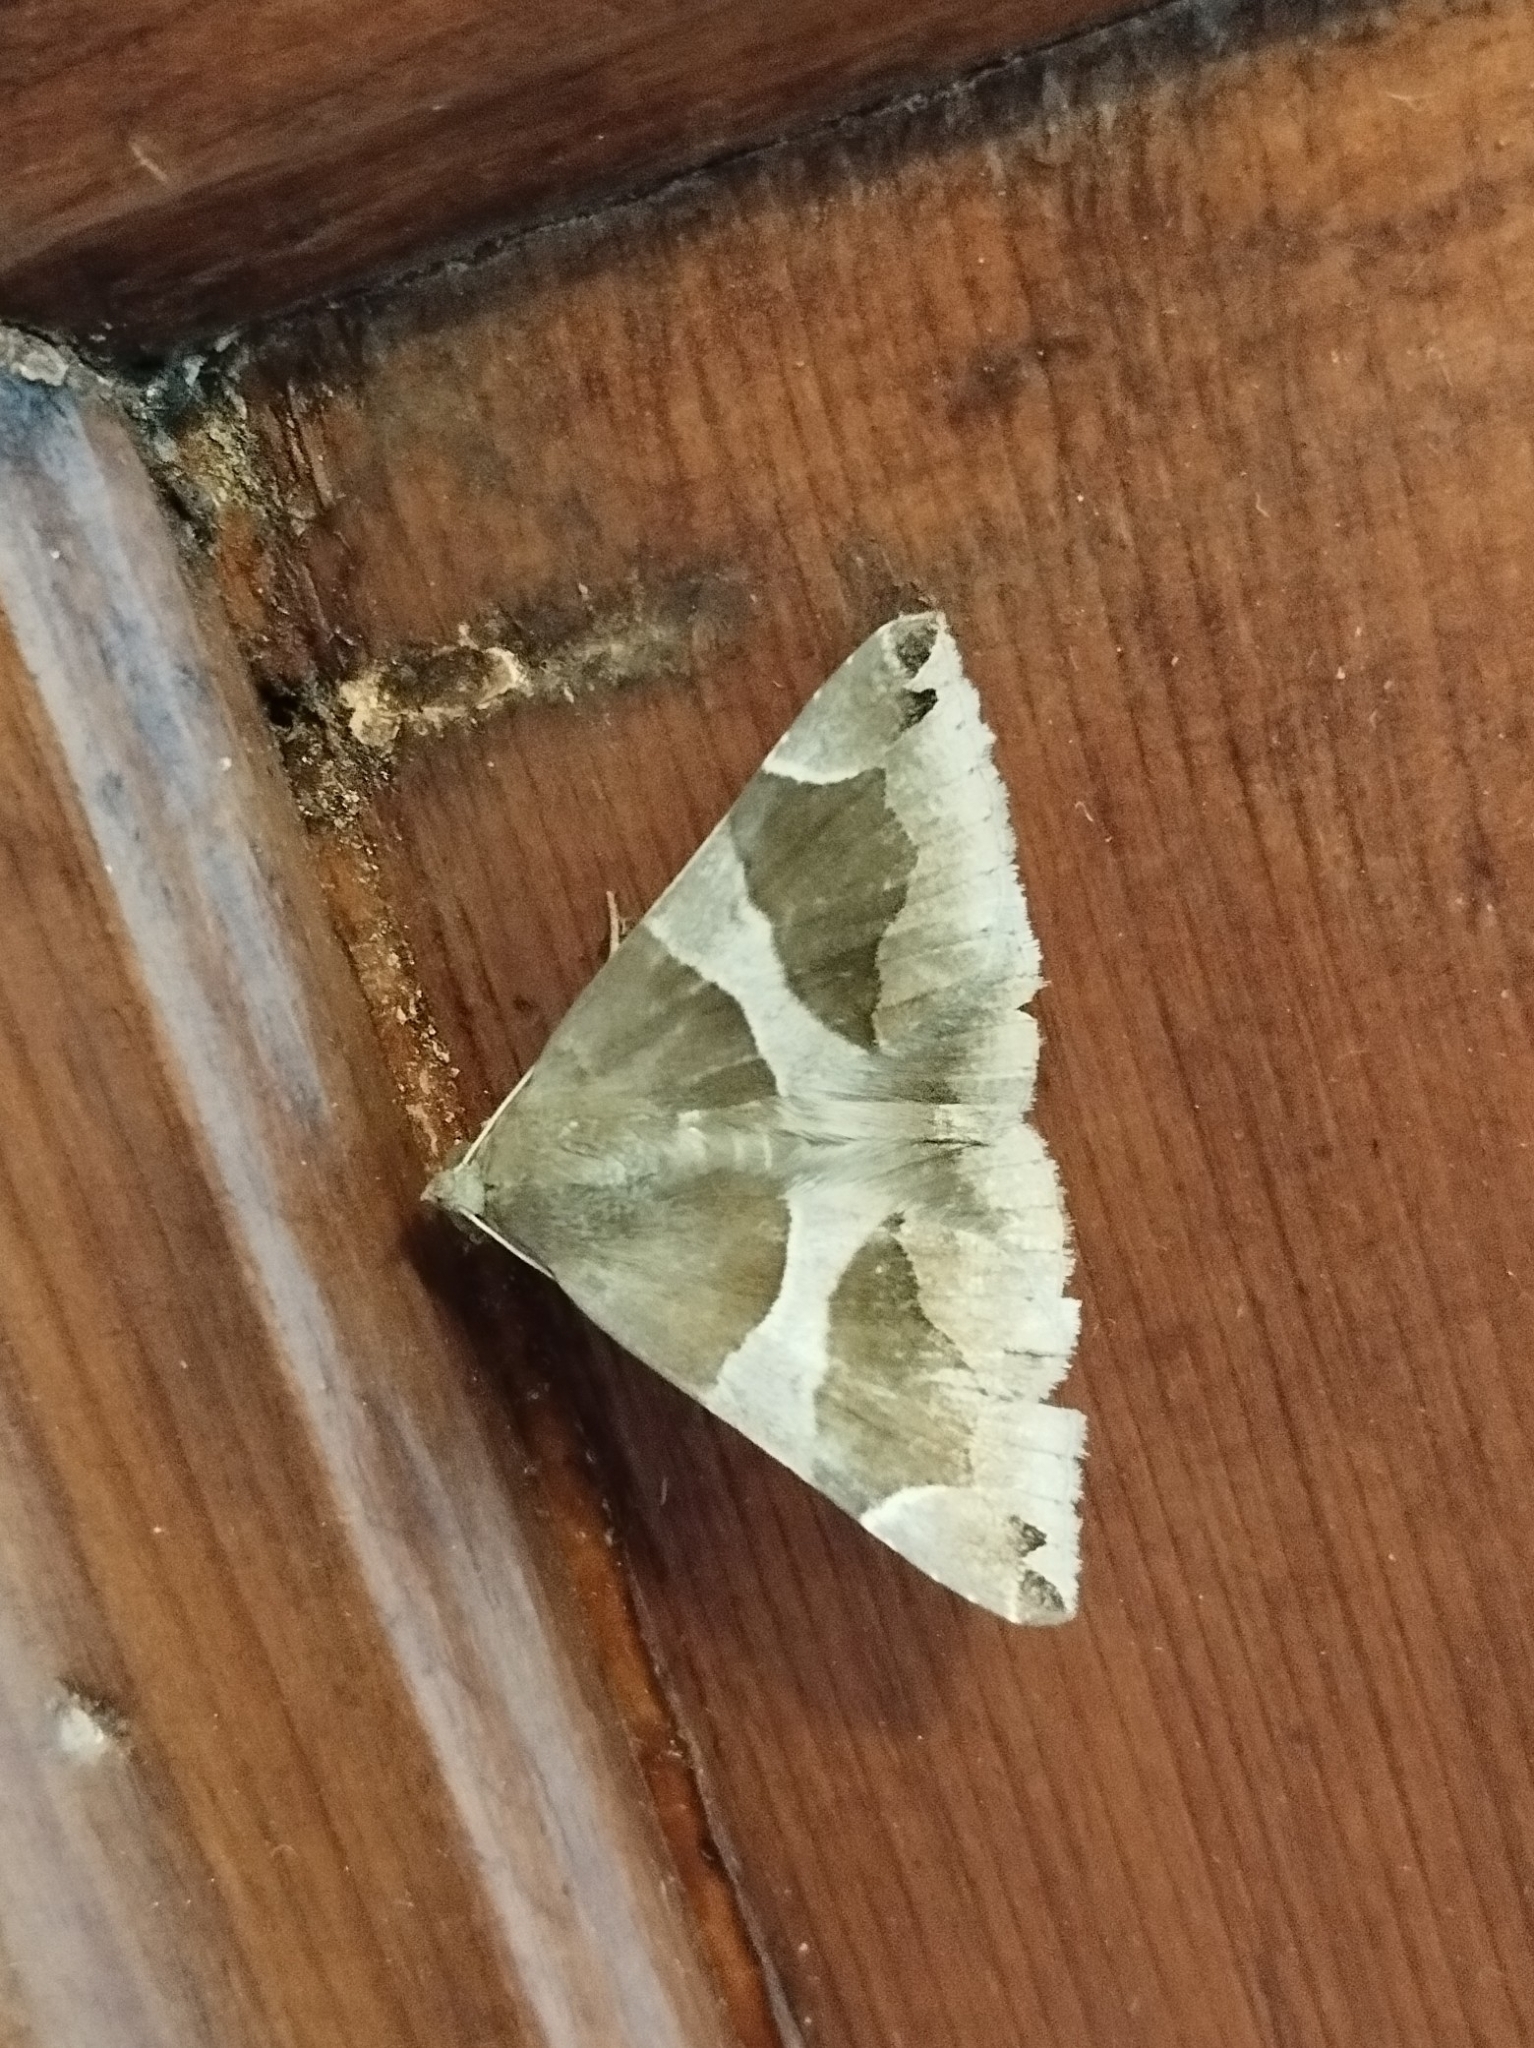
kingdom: Animalia
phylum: Arthropoda
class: Insecta
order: Lepidoptera
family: Erebidae
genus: Dysgonia
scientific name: Dysgonia algira
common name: Passenger
